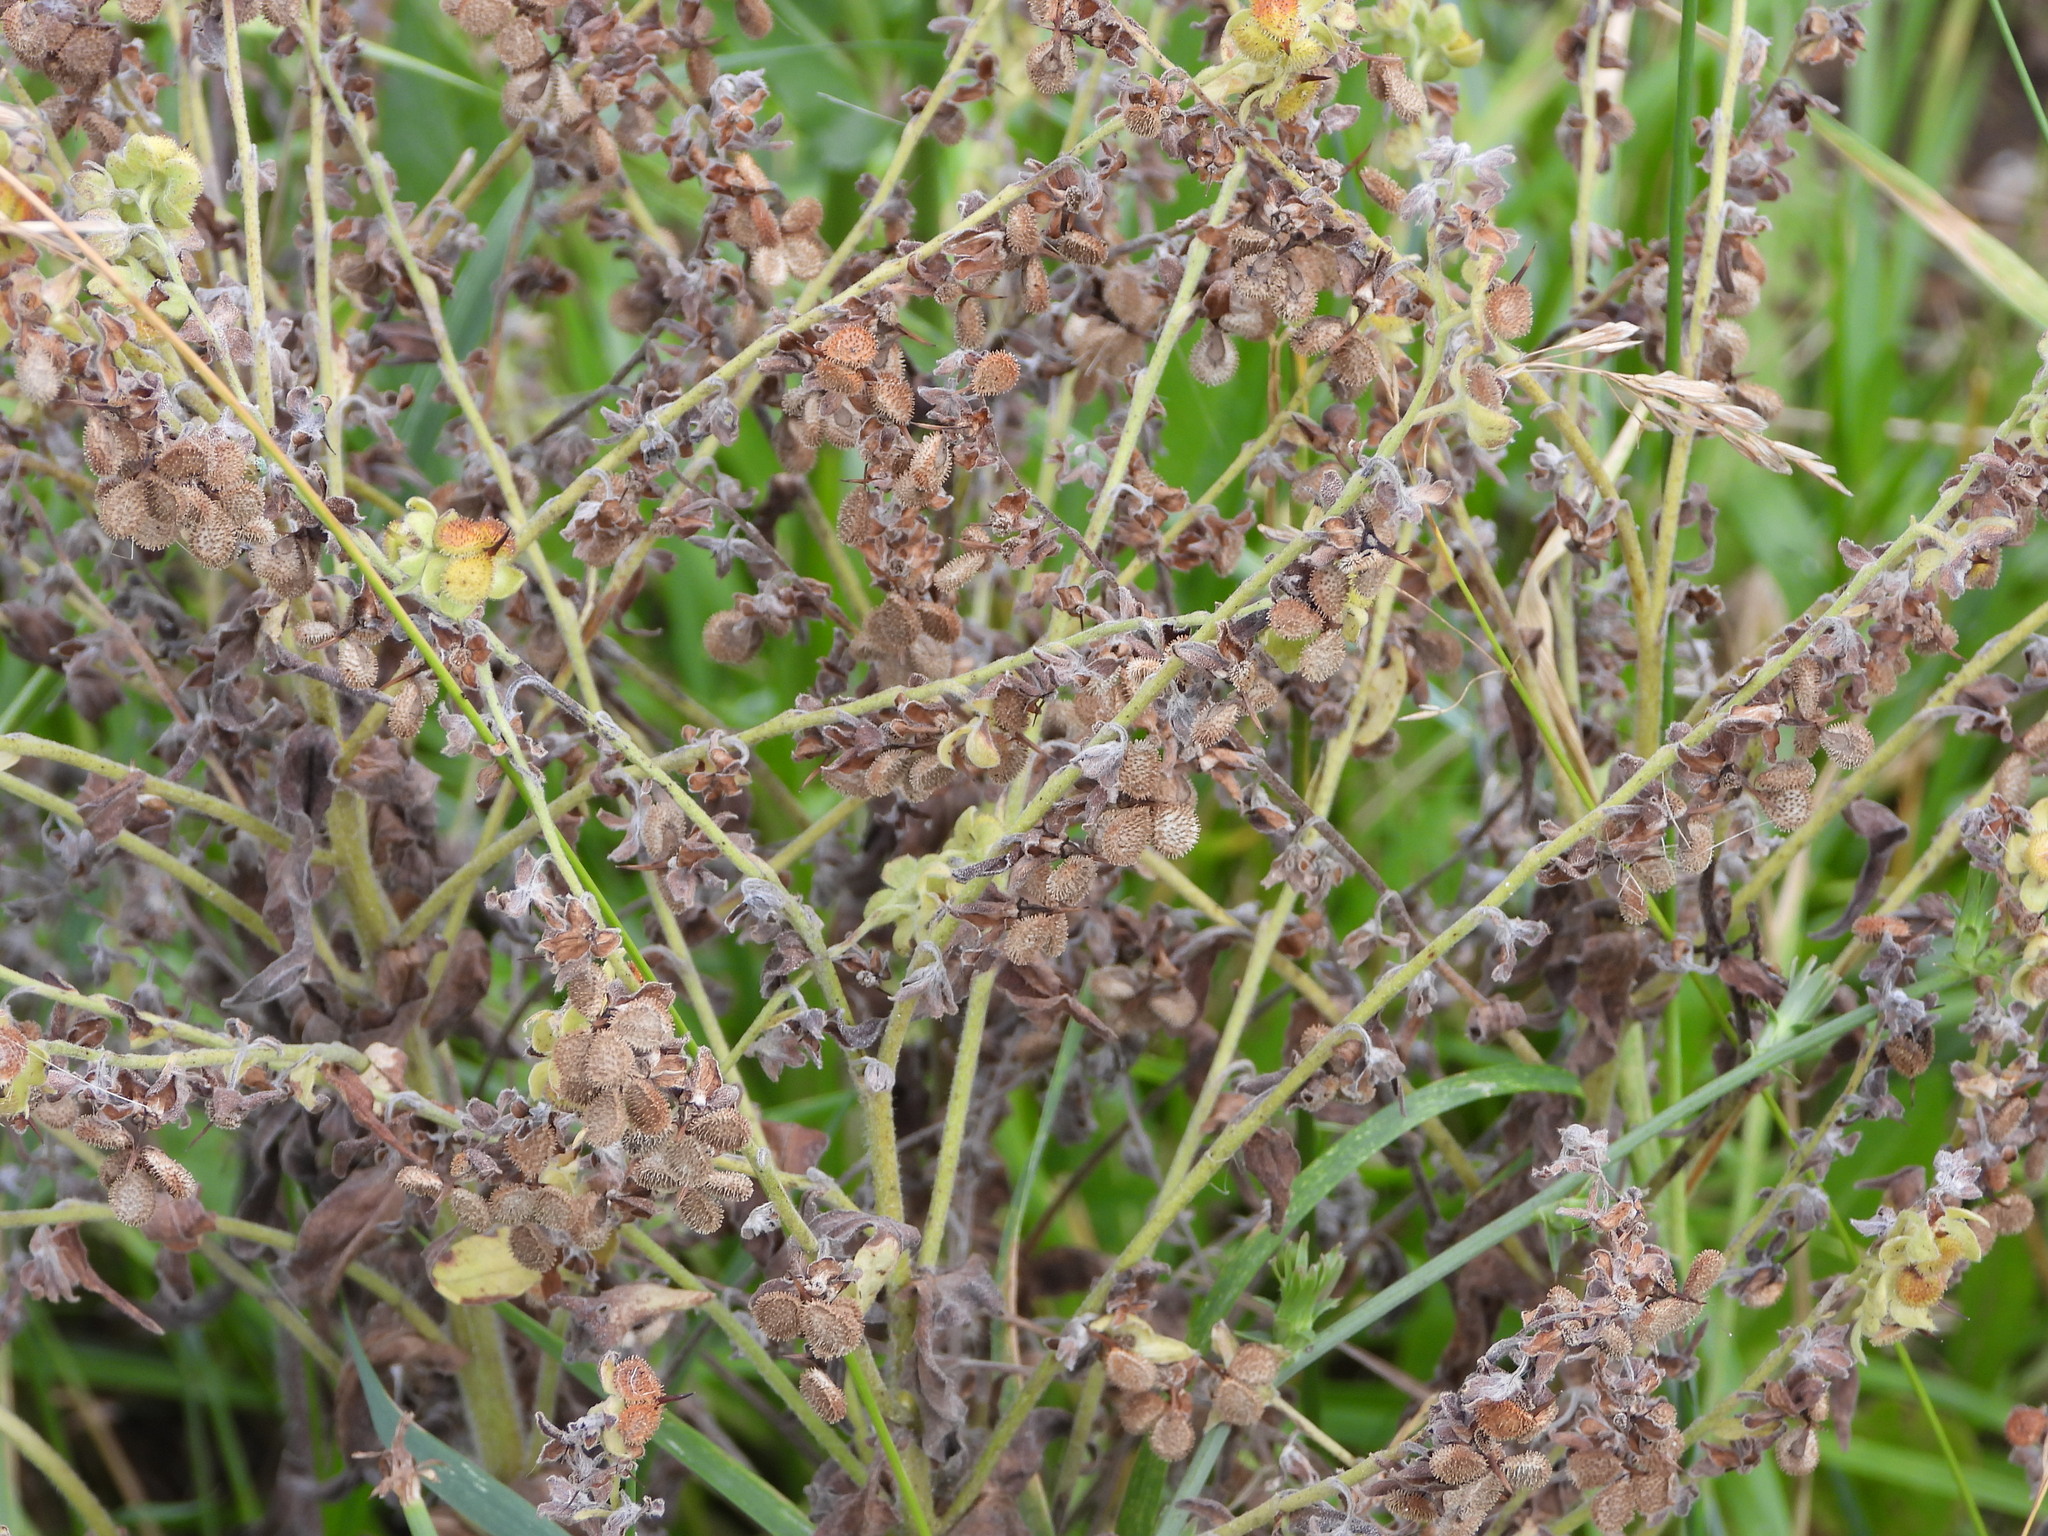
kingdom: Plantae
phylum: Tracheophyta
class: Magnoliopsida
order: Boraginales
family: Boraginaceae
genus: Cynoglossum
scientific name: Cynoglossum officinale
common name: Hound's-tongue
